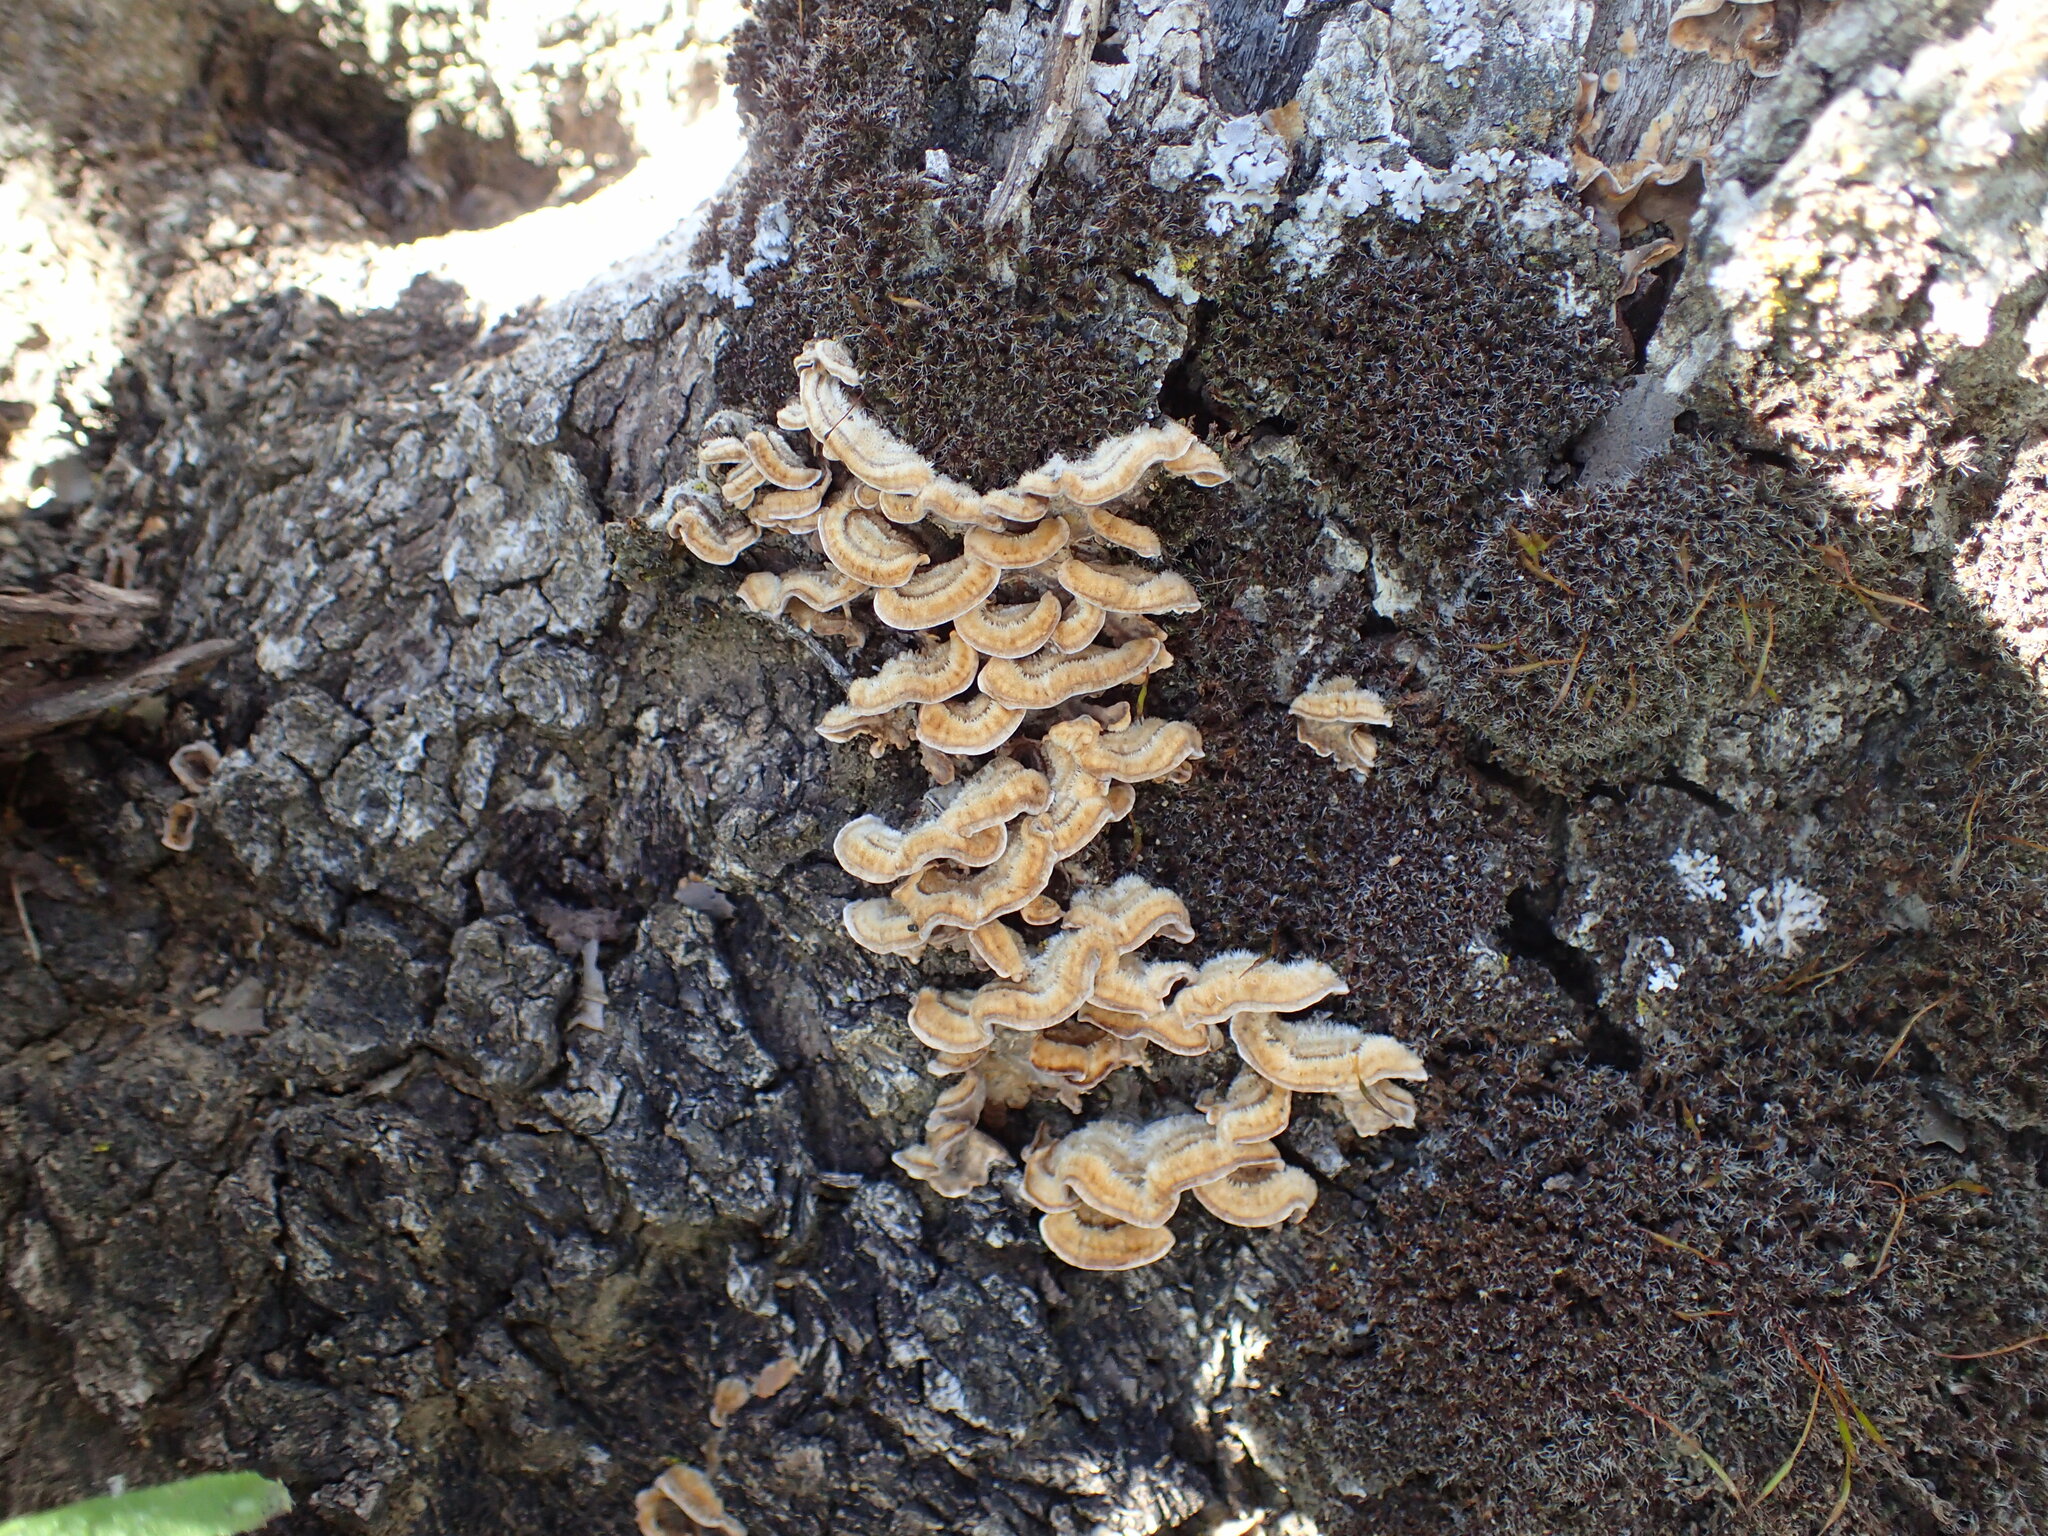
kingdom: Fungi
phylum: Basidiomycota
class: Agaricomycetes
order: Russulales
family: Stereaceae
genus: Stereum
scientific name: Stereum hirsutum
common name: Hairy curtain crust
